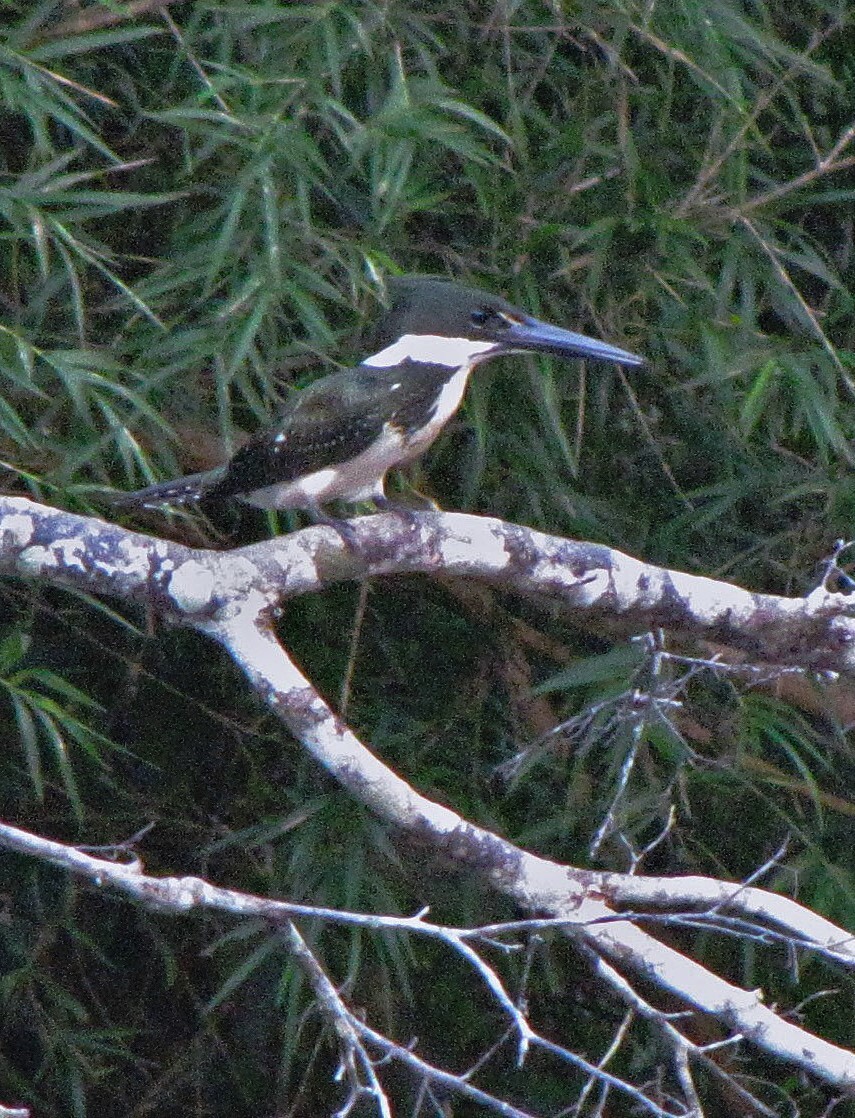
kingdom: Animalia
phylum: Chordata
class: Aves
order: Coraciiformes
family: Alcedinidae
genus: Chloroceryle
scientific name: Chloroceryle amazona
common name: Amazon kingfisher
